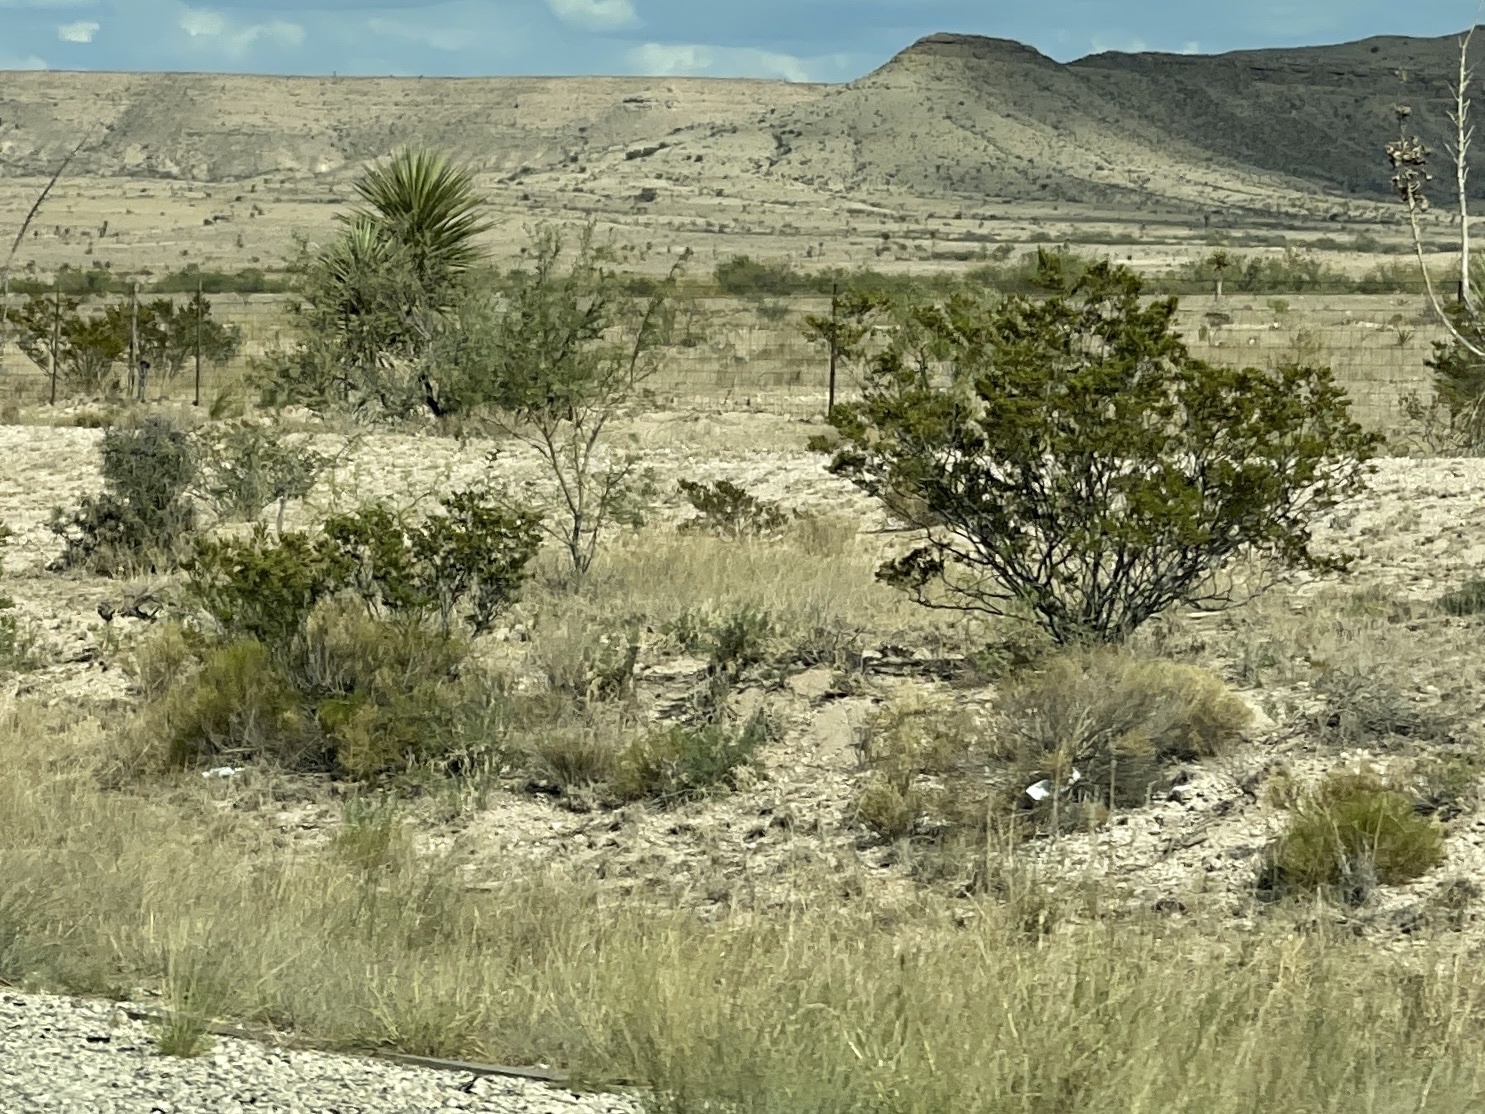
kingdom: Plantae
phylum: Tracheophyta
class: Magnoliopsida
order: Zygophyllales
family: Zygophyllaceae
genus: Larrea
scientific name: Larrea tridentata
